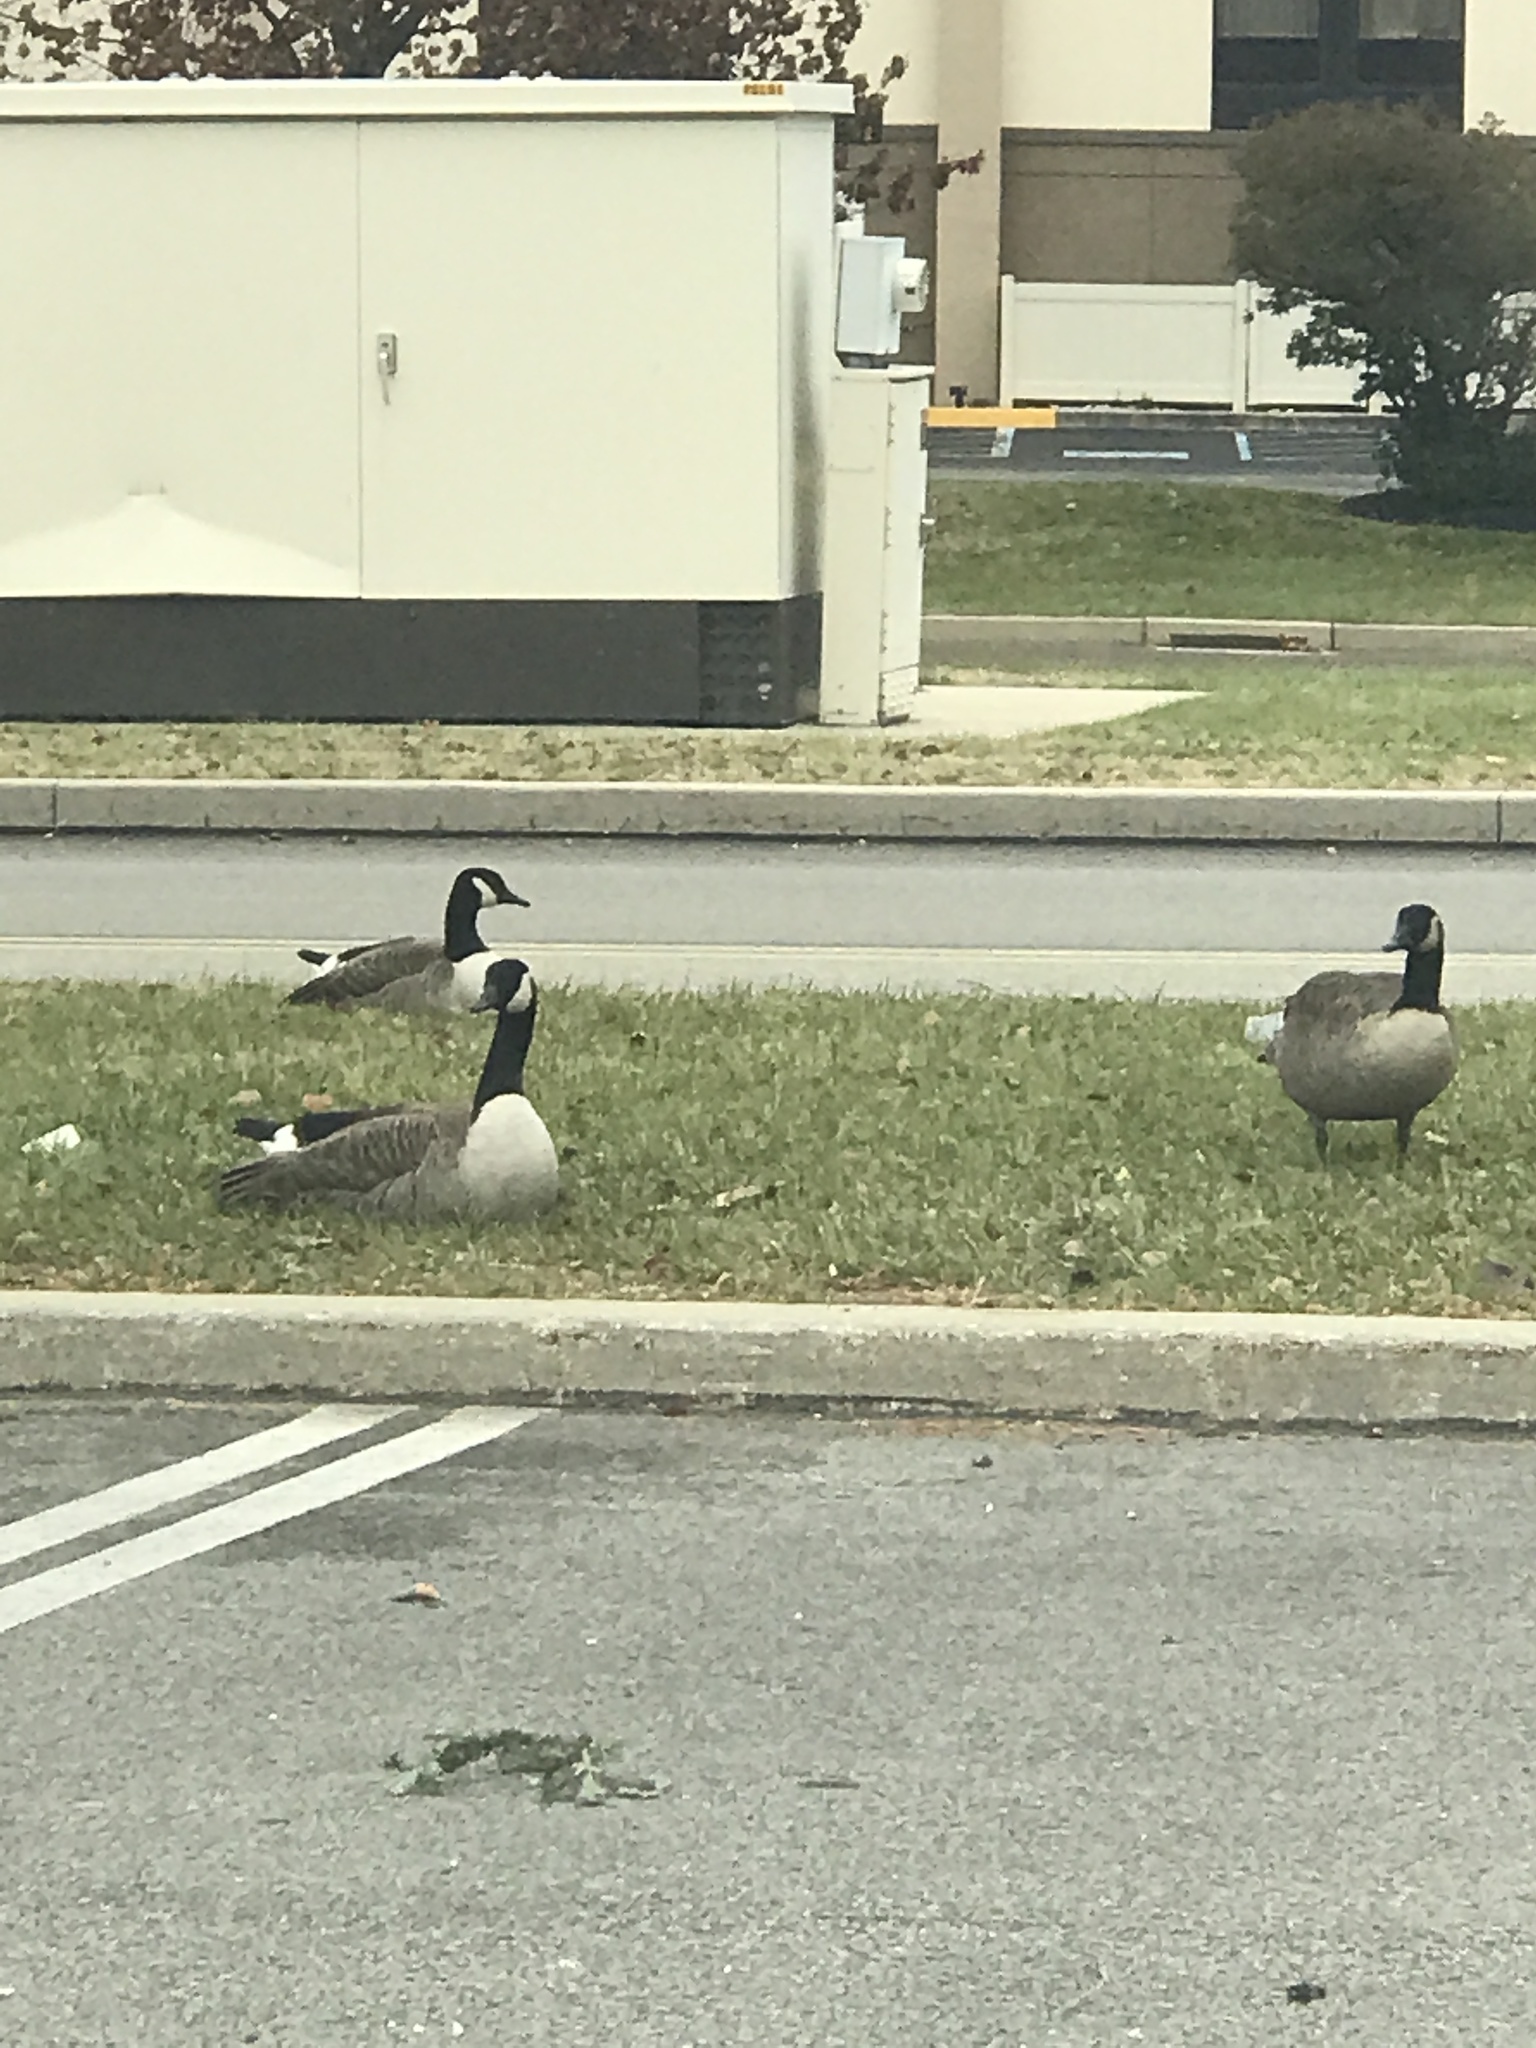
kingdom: Animalia
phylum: Chordata
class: Aves
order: Anseriformes
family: Anatidae
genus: Branta
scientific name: Branta canadensis
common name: Canada goose
